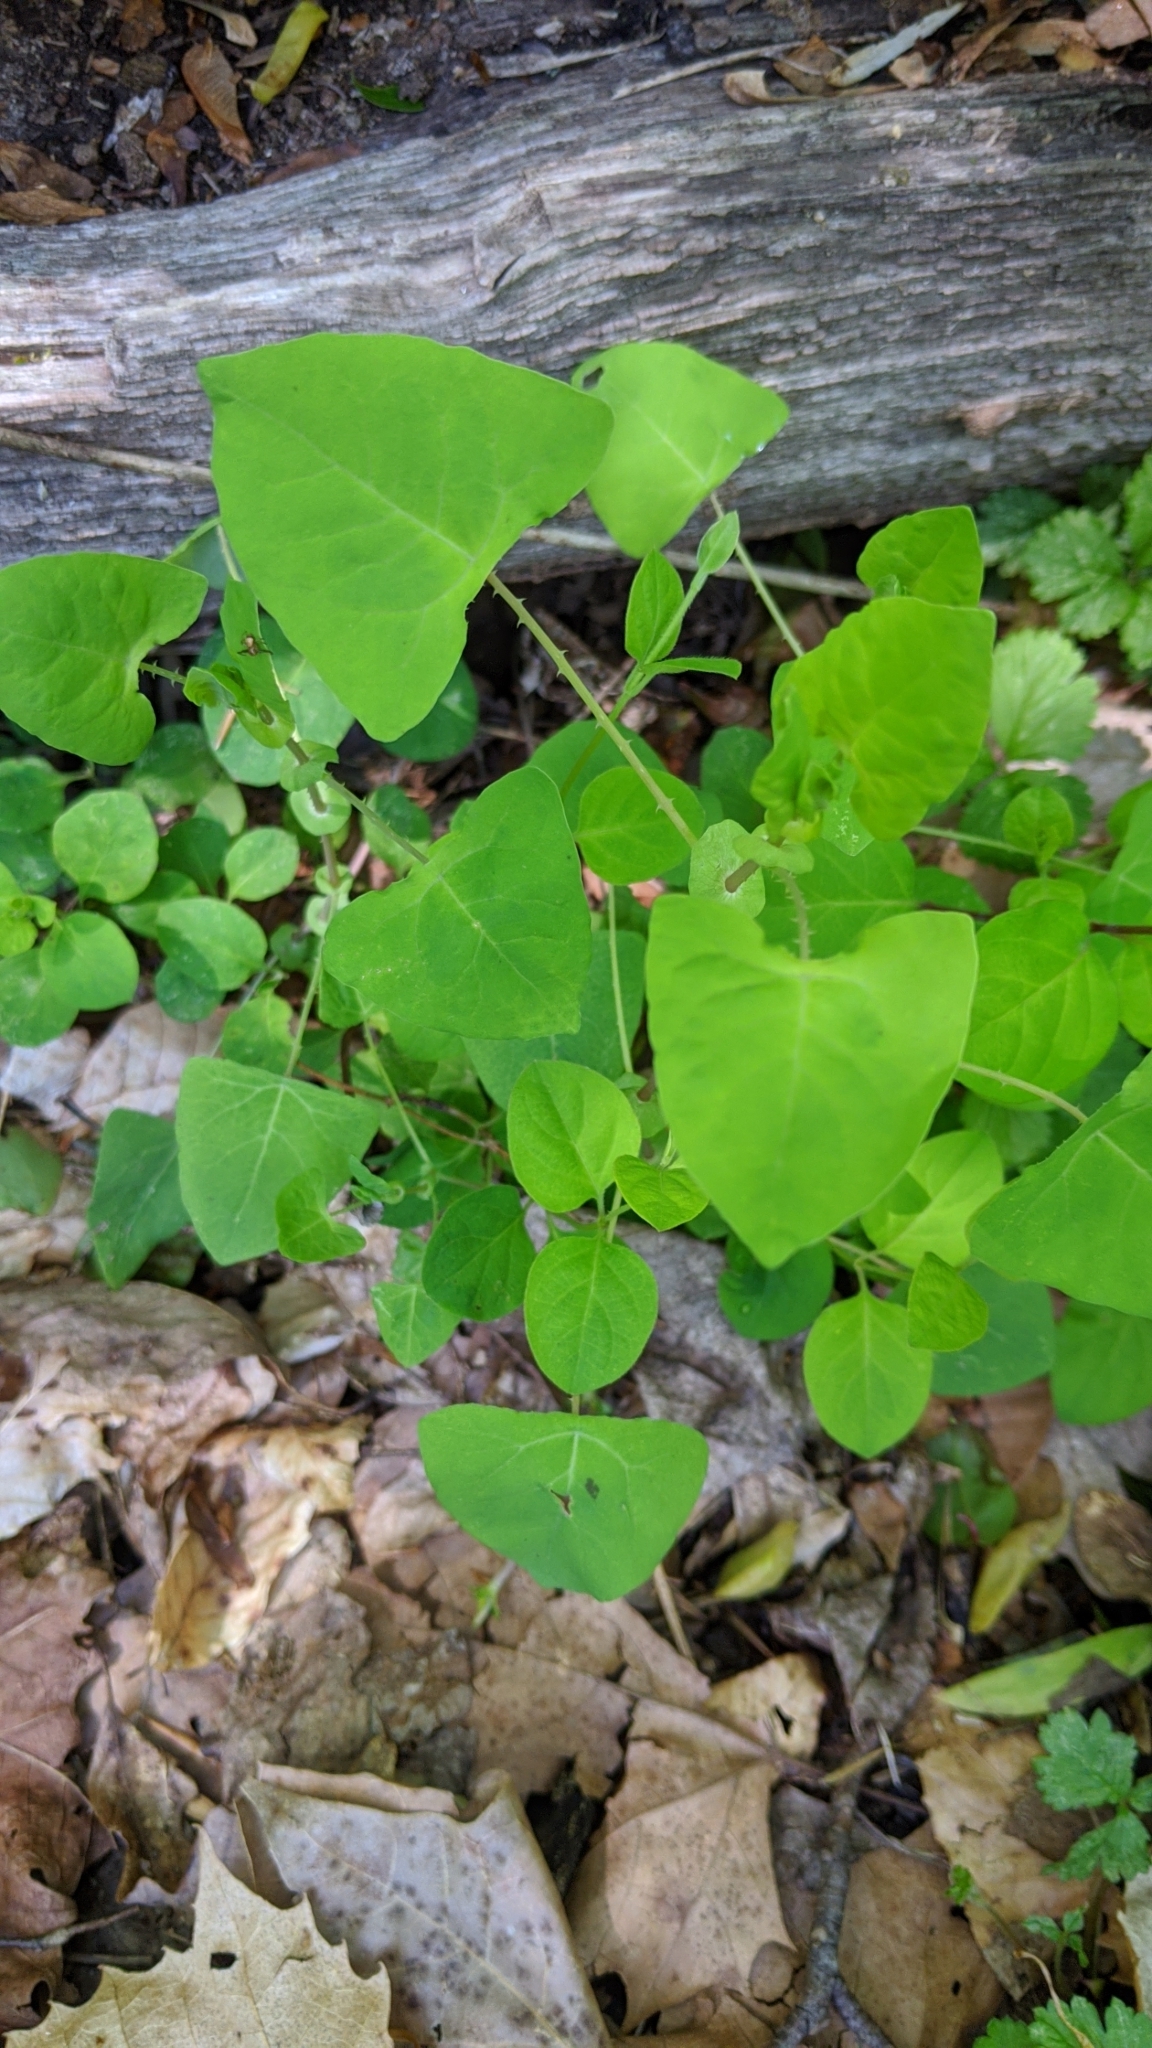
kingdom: Plantae
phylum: Tracheophyta
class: Magnoliopsida
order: Caryophyllales
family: Polygonaceae
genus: Persicaria
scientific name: Persicaria perfoliata
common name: Asiatic tearthumb
